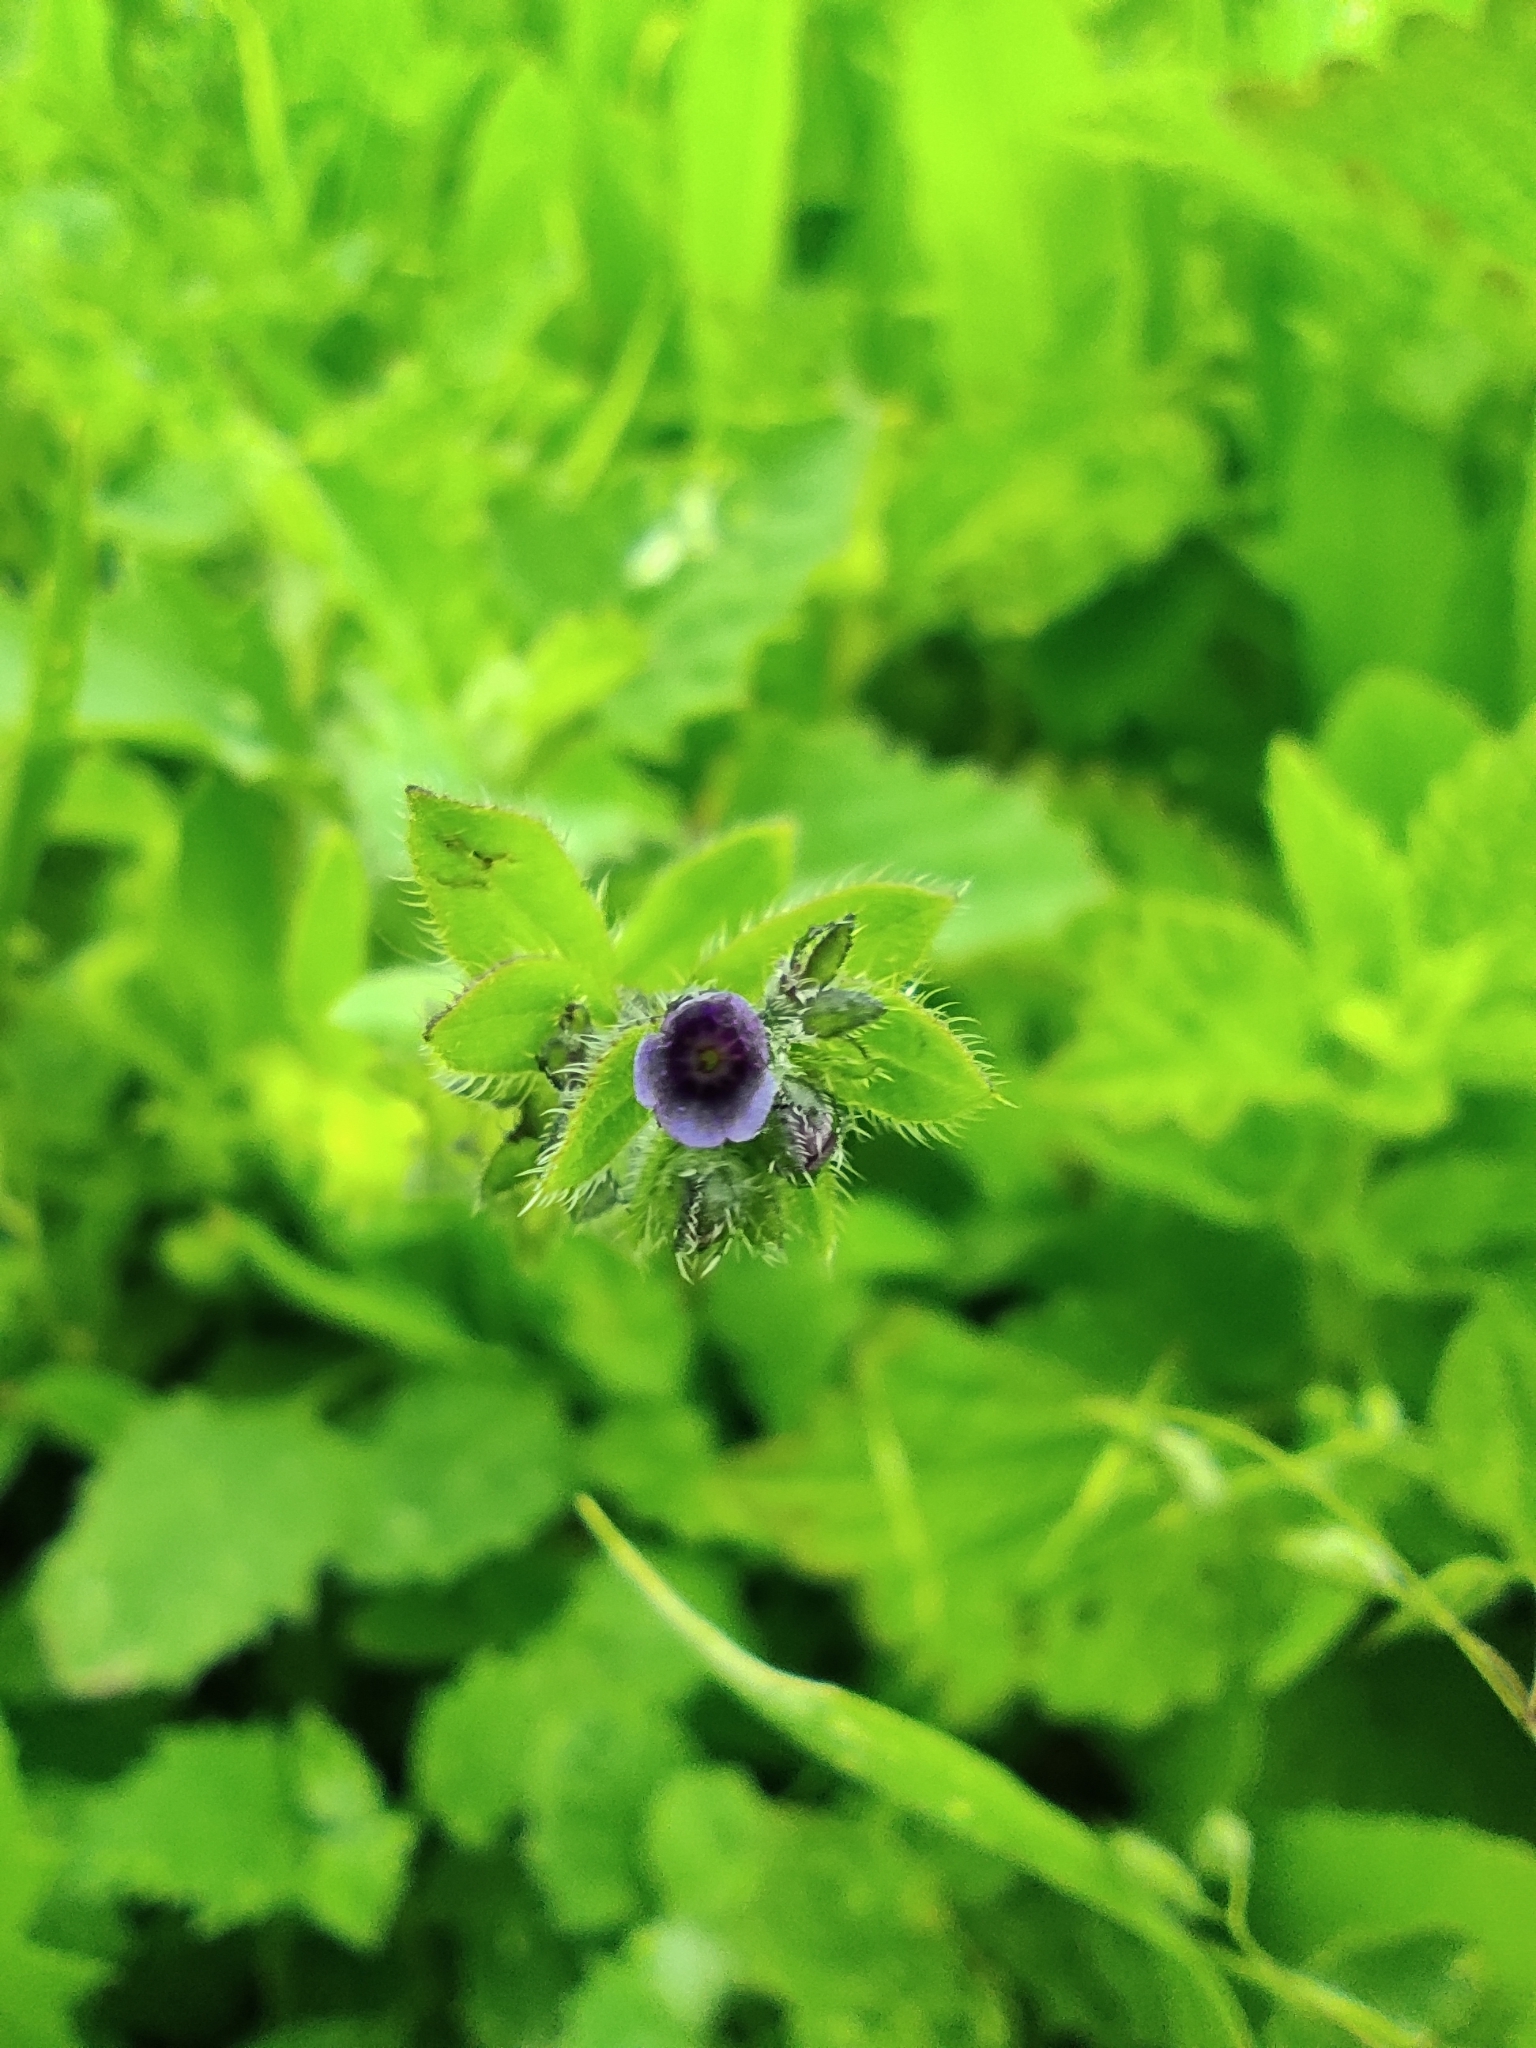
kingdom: Plantae
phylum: Tracheophyta
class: Magnoliopsida
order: Boraginales
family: Boraginaceae
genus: Asperugo
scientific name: Asperugo procumbens
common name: Madwort
